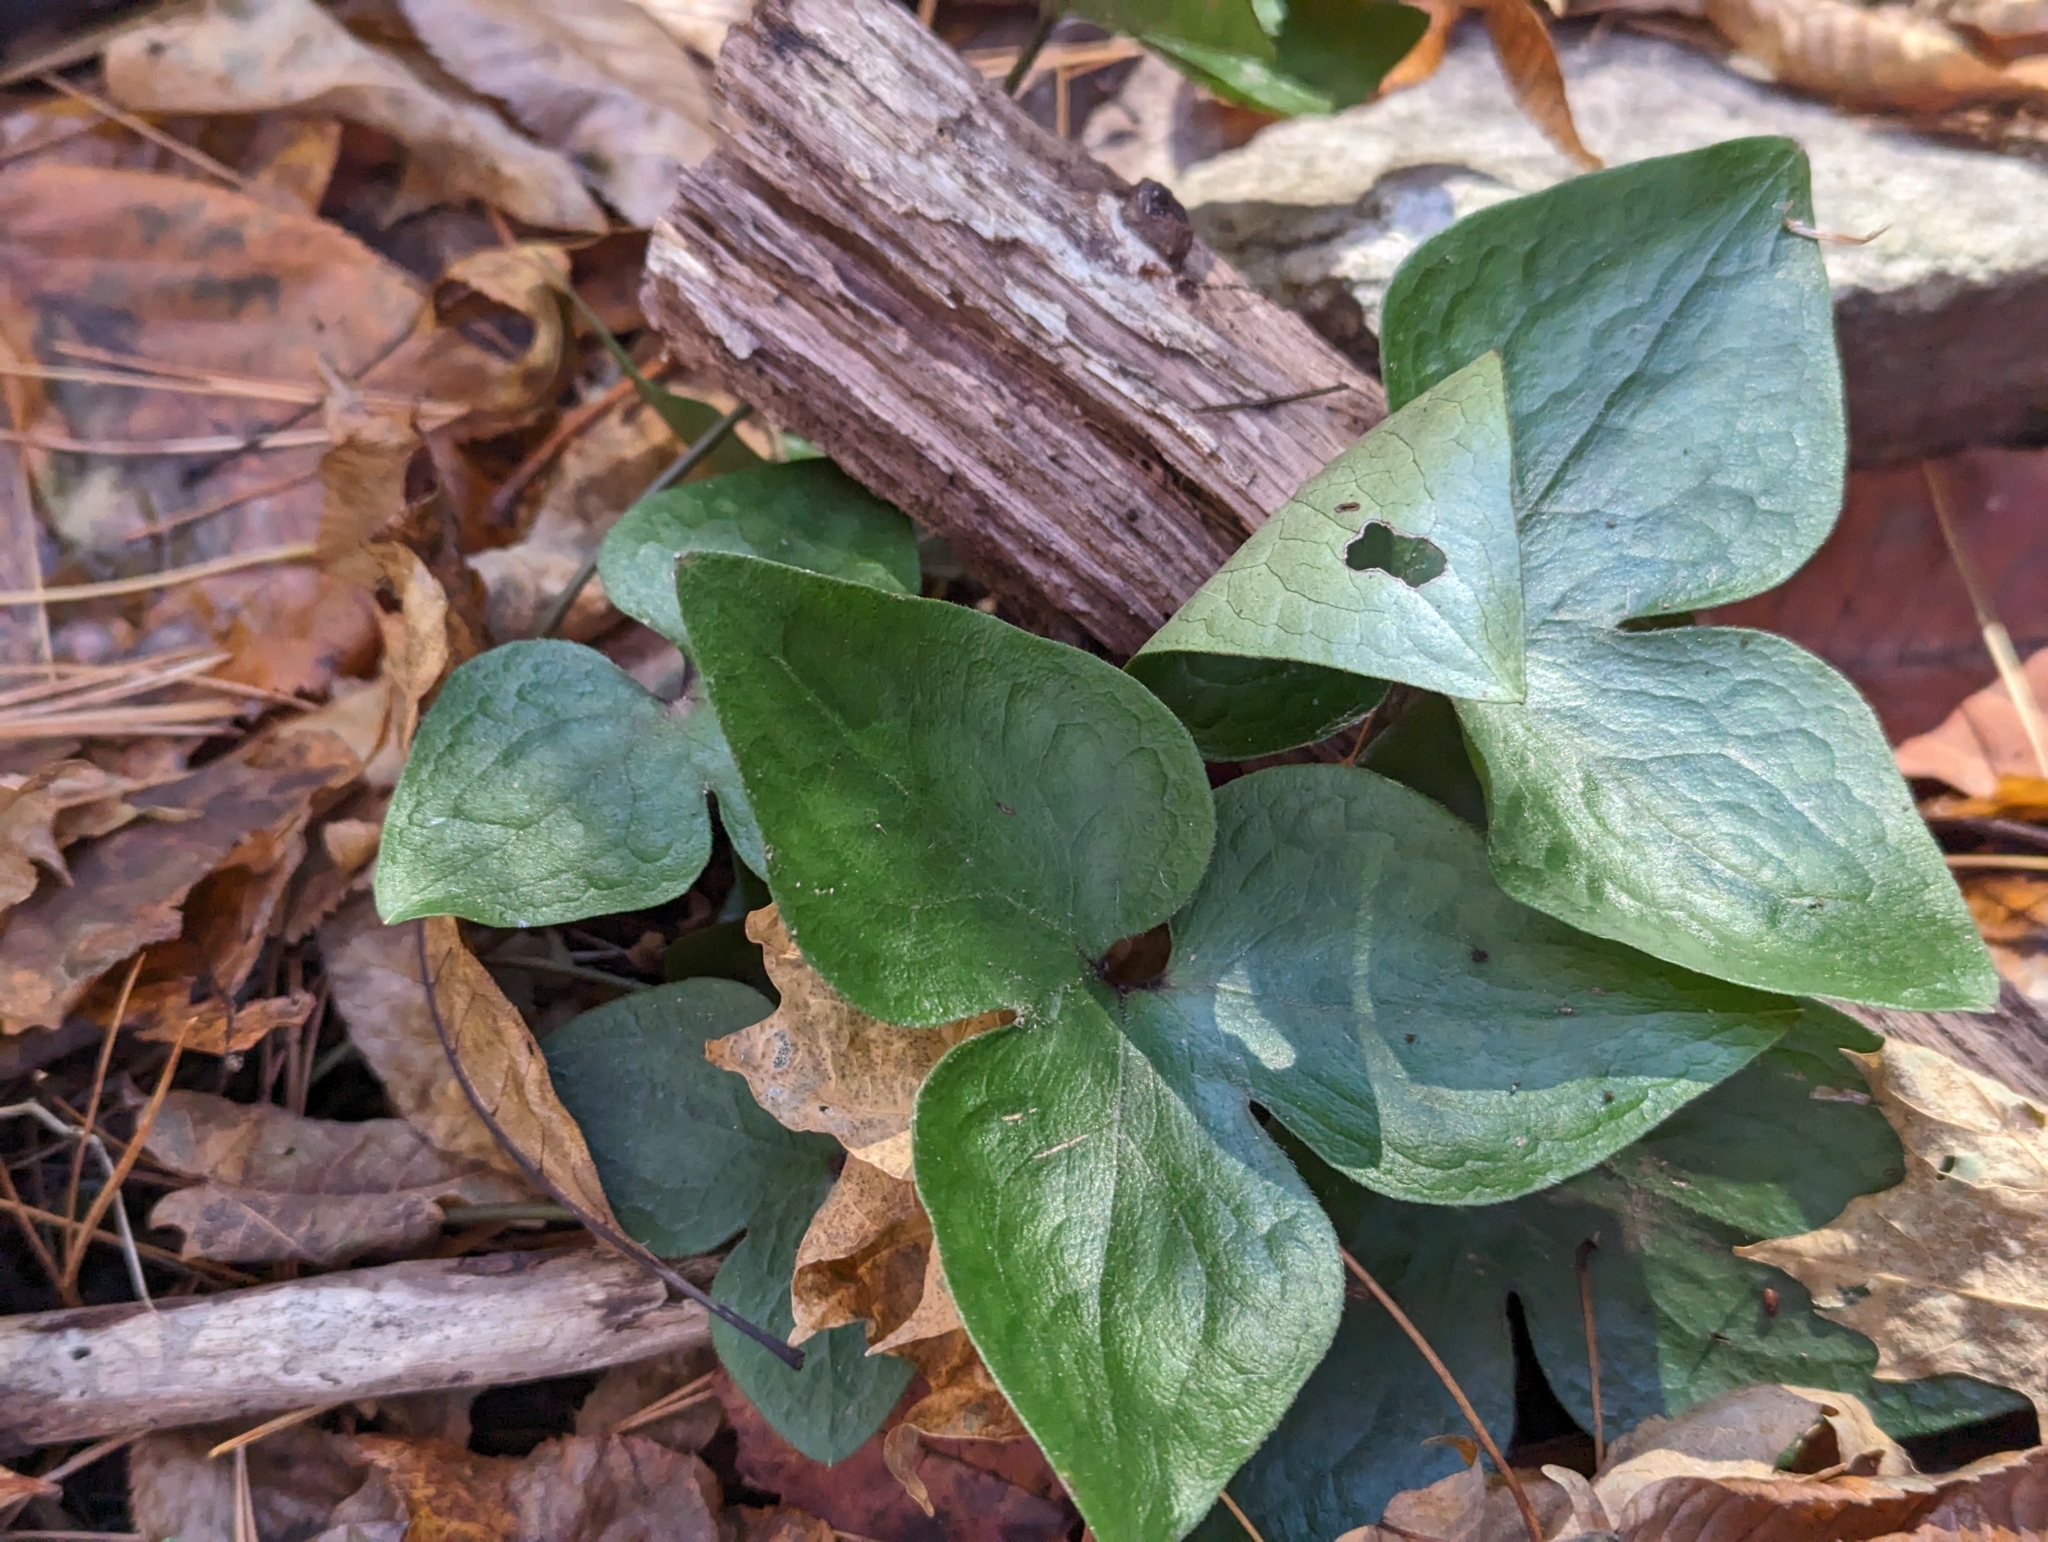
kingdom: Plantae
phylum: Tracheophyta
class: Magnoliopsida
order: Ranunculales
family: Ranunculaceae
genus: Hepatica
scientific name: Hepatica acutiloba
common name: Sharp-lobed hepatica
